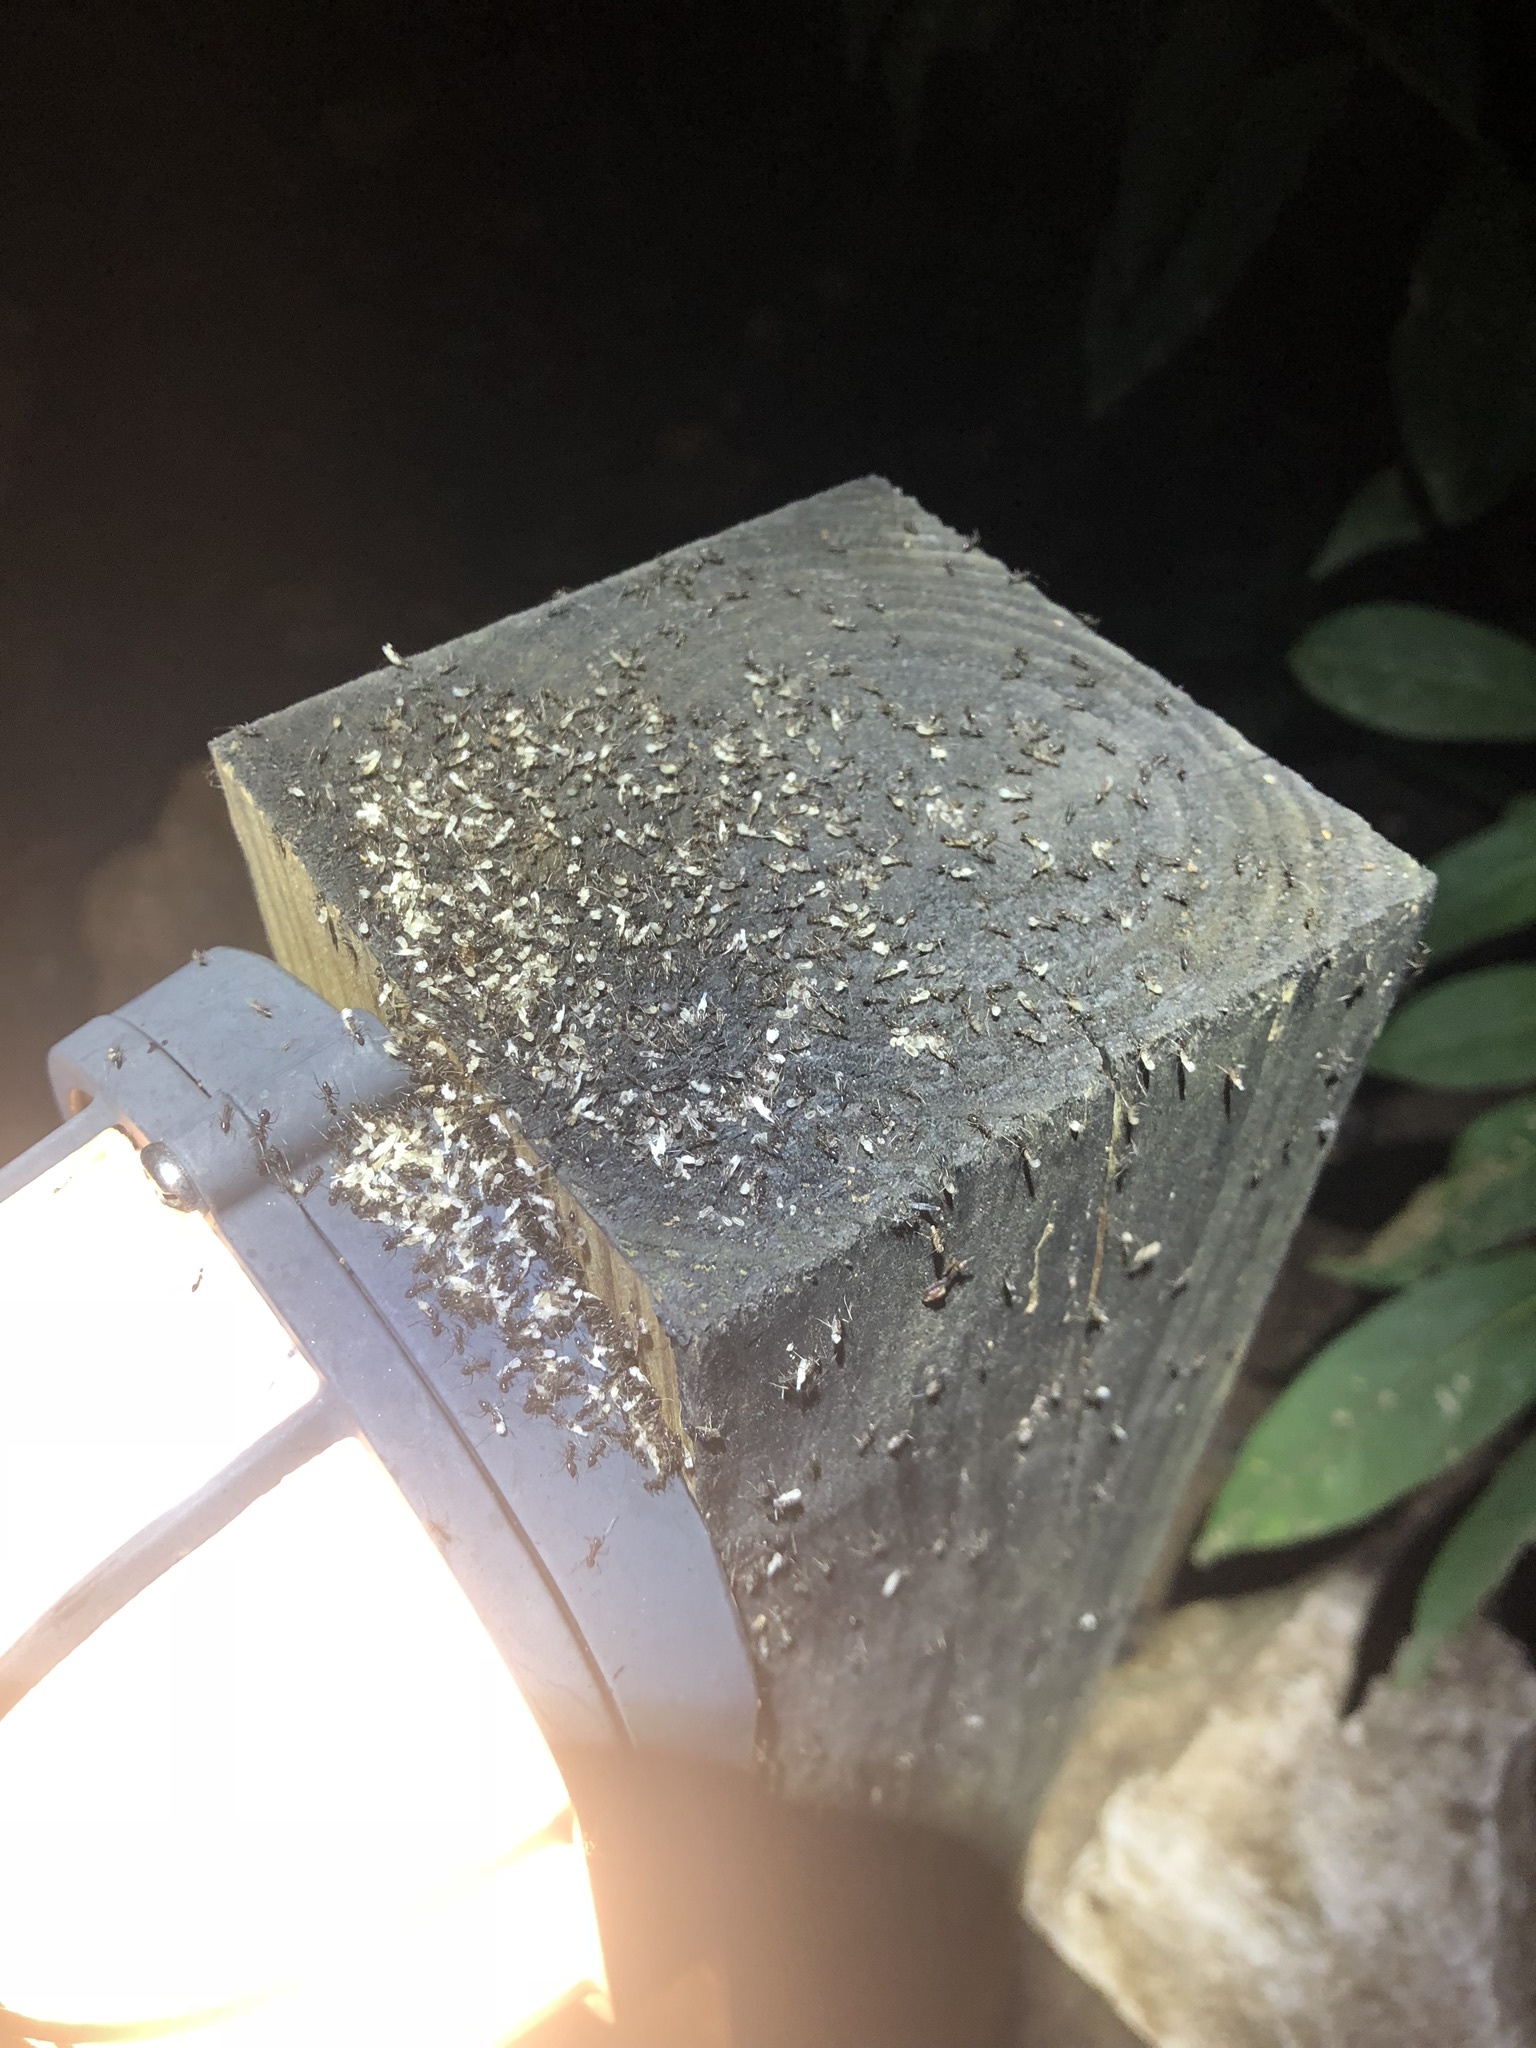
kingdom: Animalia
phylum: Arthropoda
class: Insecta
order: Hymenoptera
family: Formicidae
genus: Paratrechina
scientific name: Paratrechina longicornis
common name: Longhorned crazy ant
